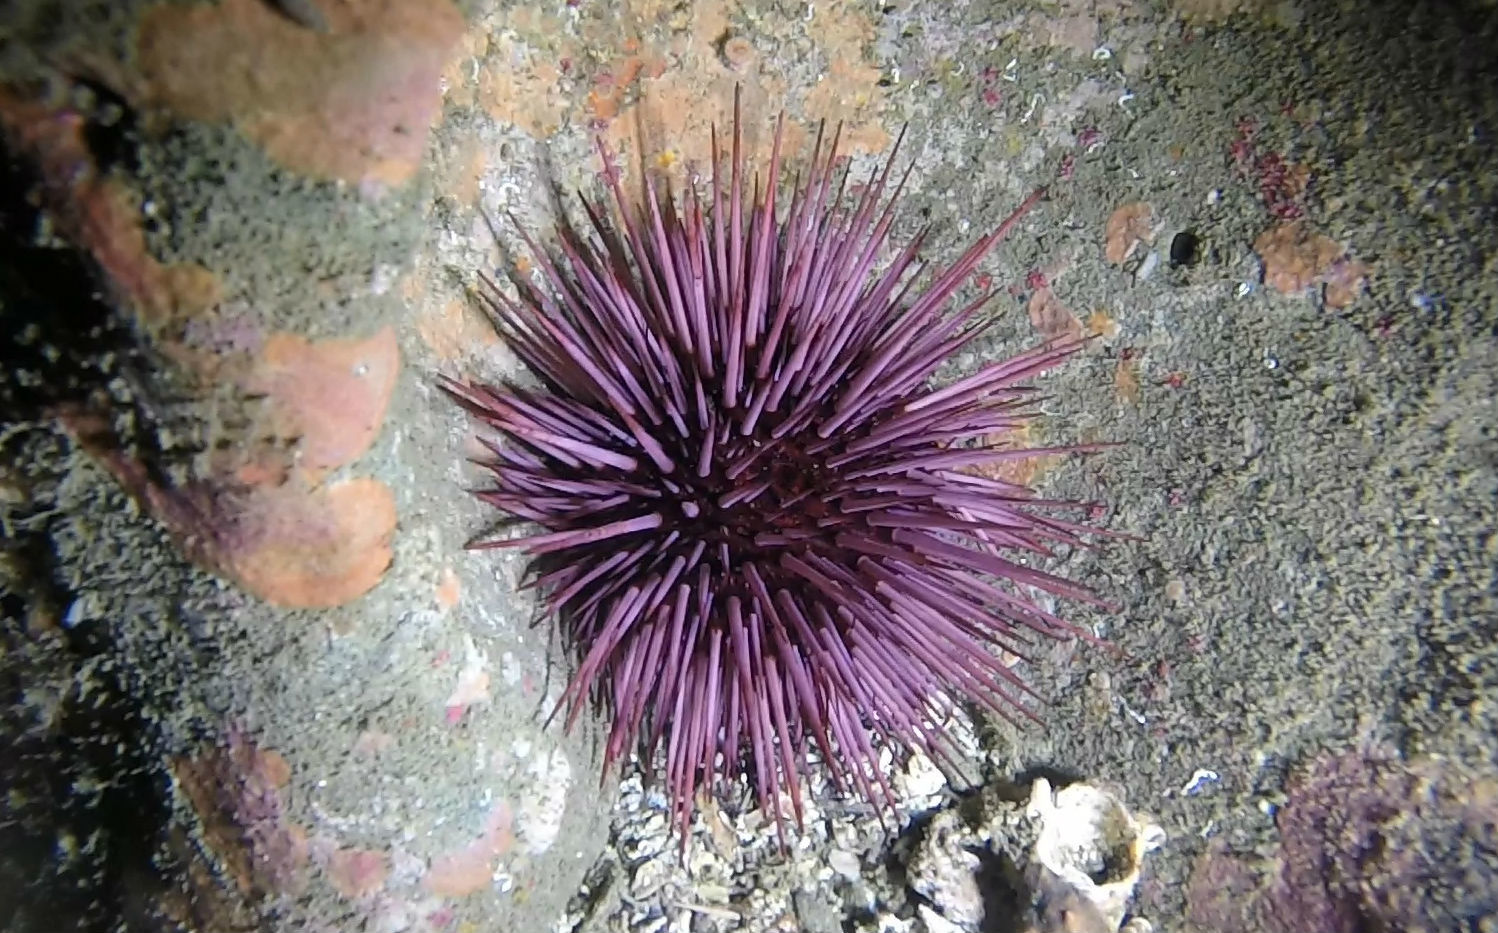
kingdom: Animalia
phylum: Echinodermata
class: Echinoidea
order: Camarodonta
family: Strongylocentrotidae
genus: Strongylocentrotus
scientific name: Strongylocentrotus purpuratus
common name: Purple sea urchin
